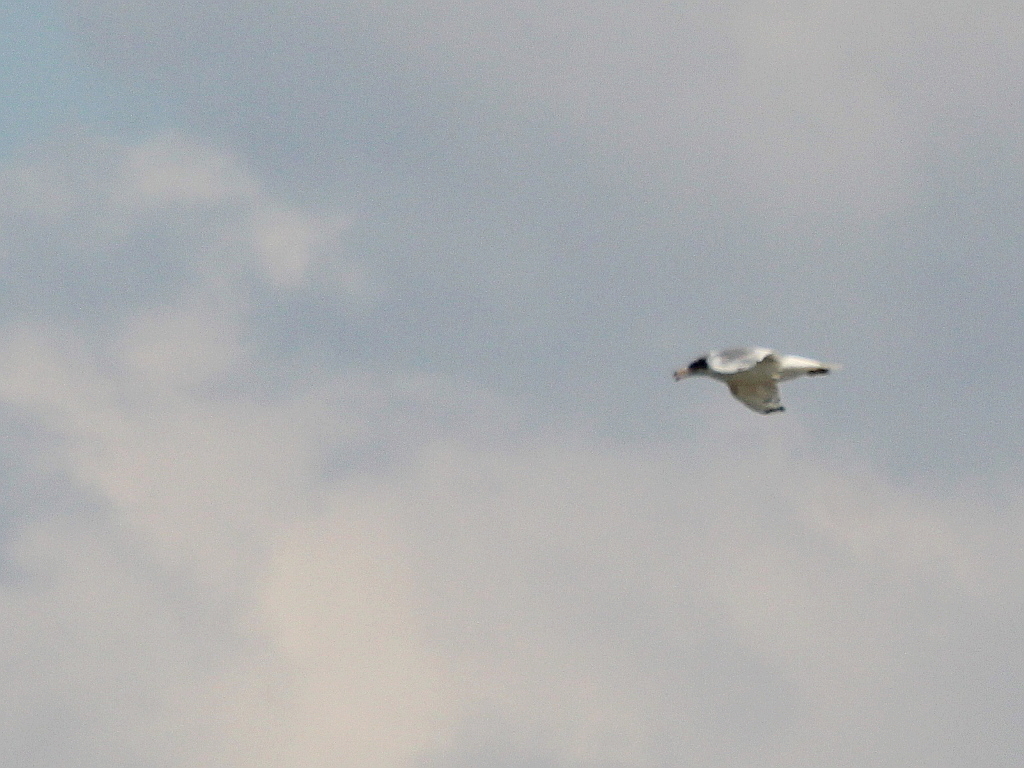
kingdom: Animalia
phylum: Chordata
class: Aves
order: Charadriiformes
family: Laridae
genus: Ichthyaetus
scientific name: Ichthyaetus ichthyaetus
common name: Pallas's gull
